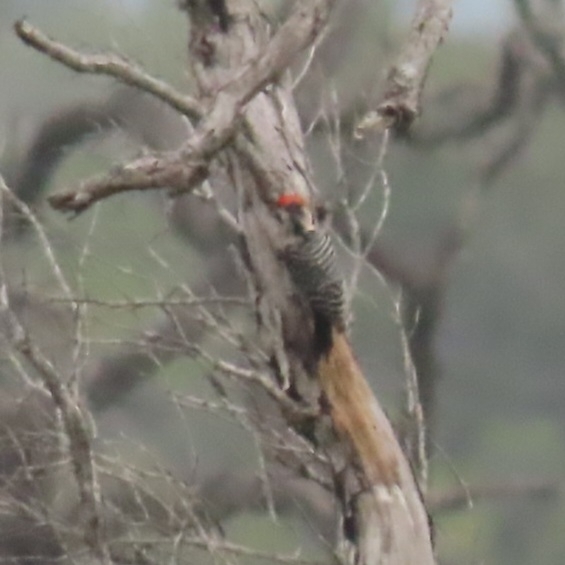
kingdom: Animalia
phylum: Chordata
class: Aves
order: Piciformes
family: Picidae
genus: Dryobates
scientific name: Dryobates scalaris
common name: Ladder-backed woodpecker
